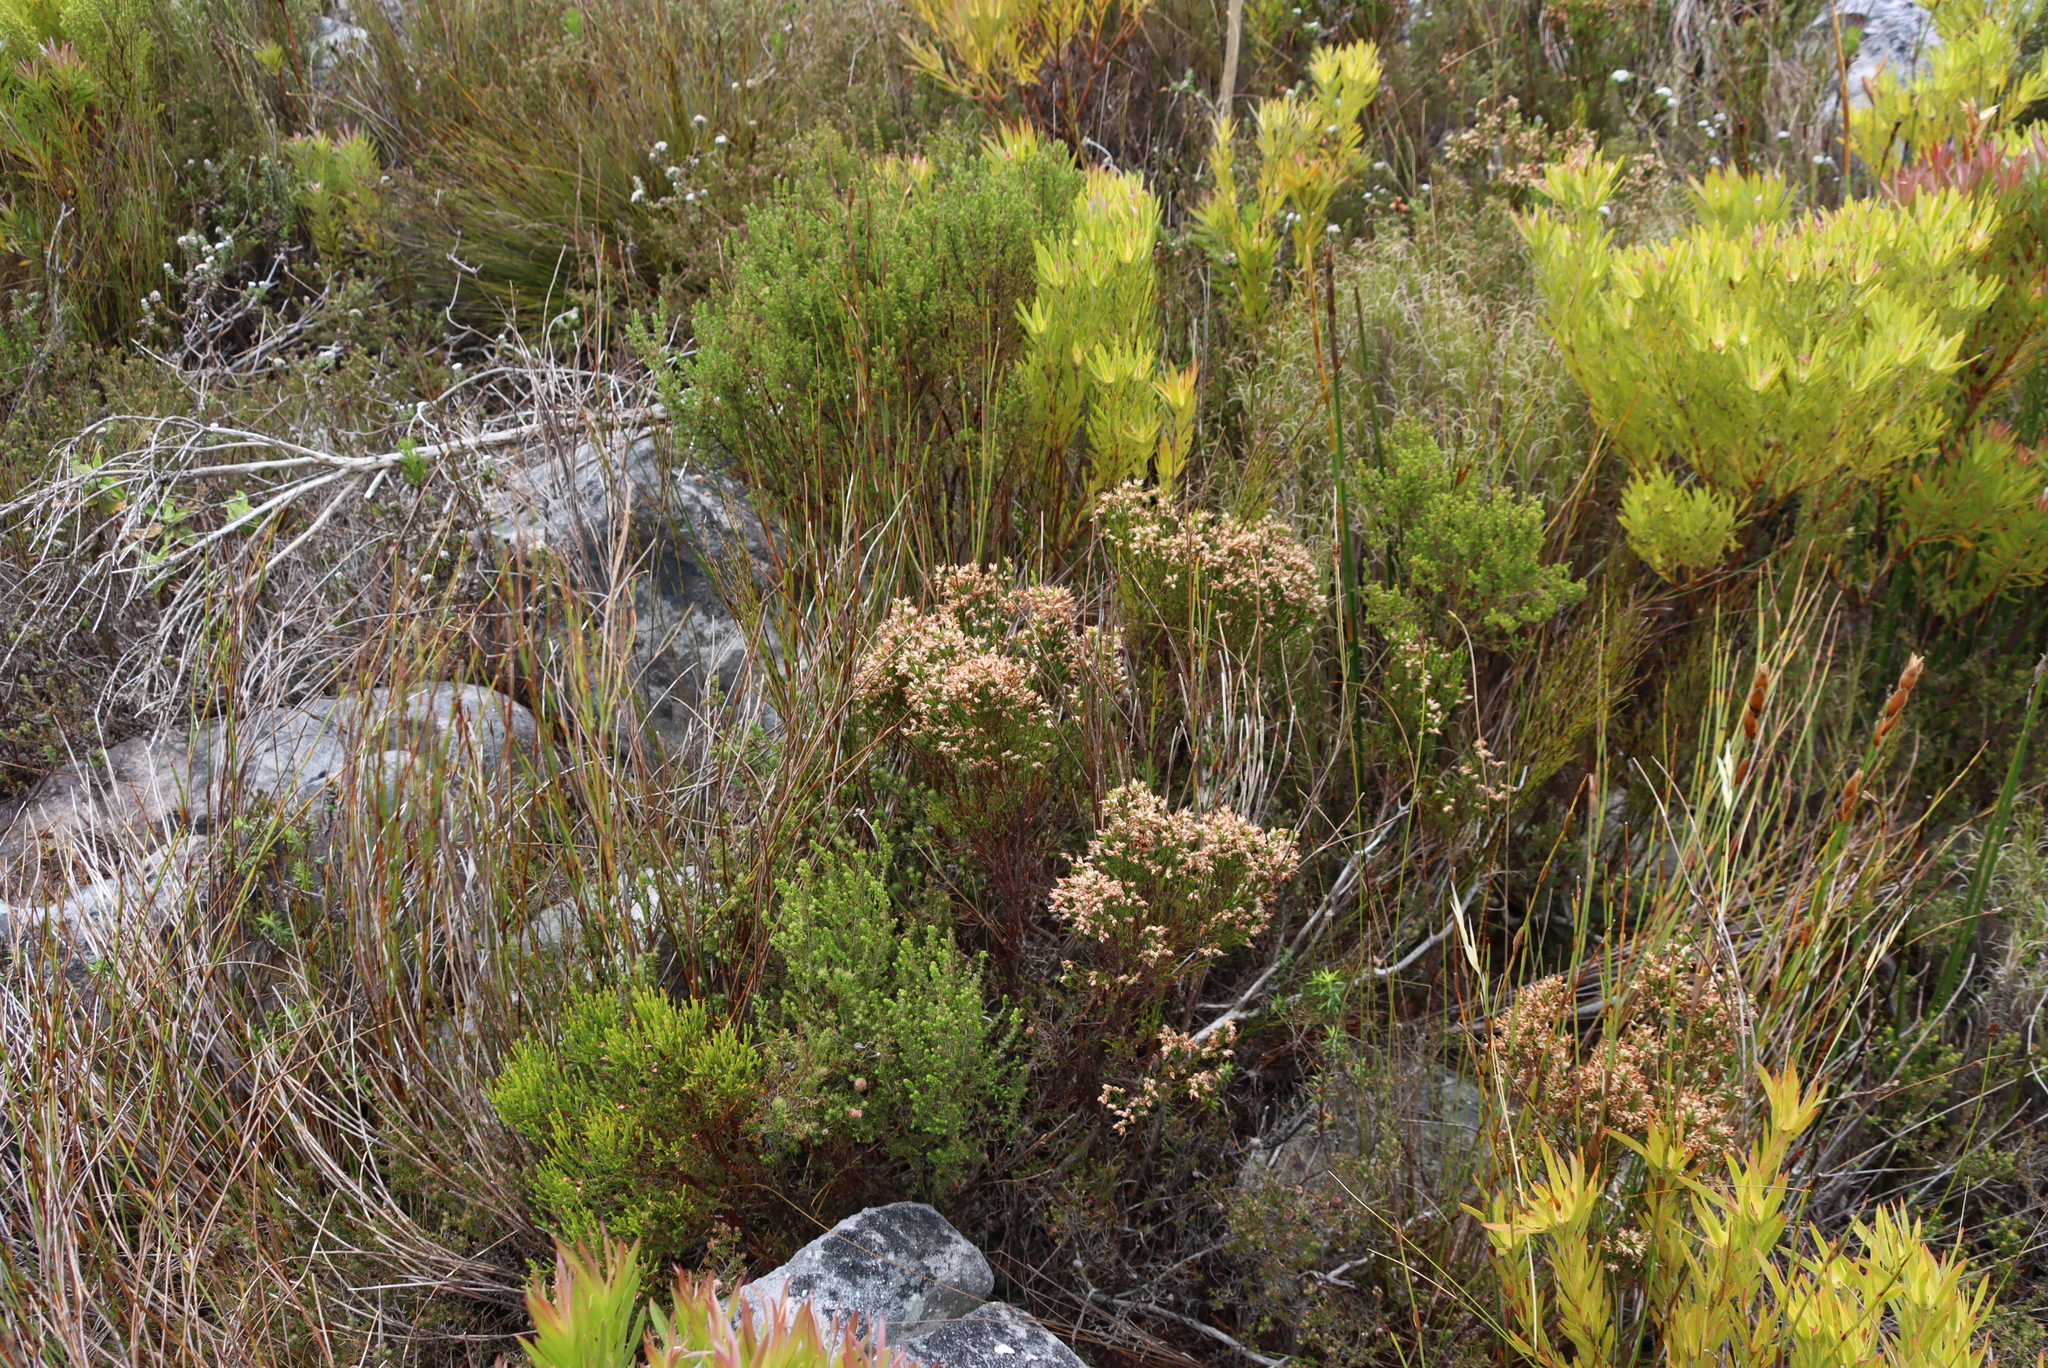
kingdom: Plantae
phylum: Tracheophyta
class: Magnoliopsida
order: Ericales
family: Ericaceae
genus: Erica
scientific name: Erica lutea
